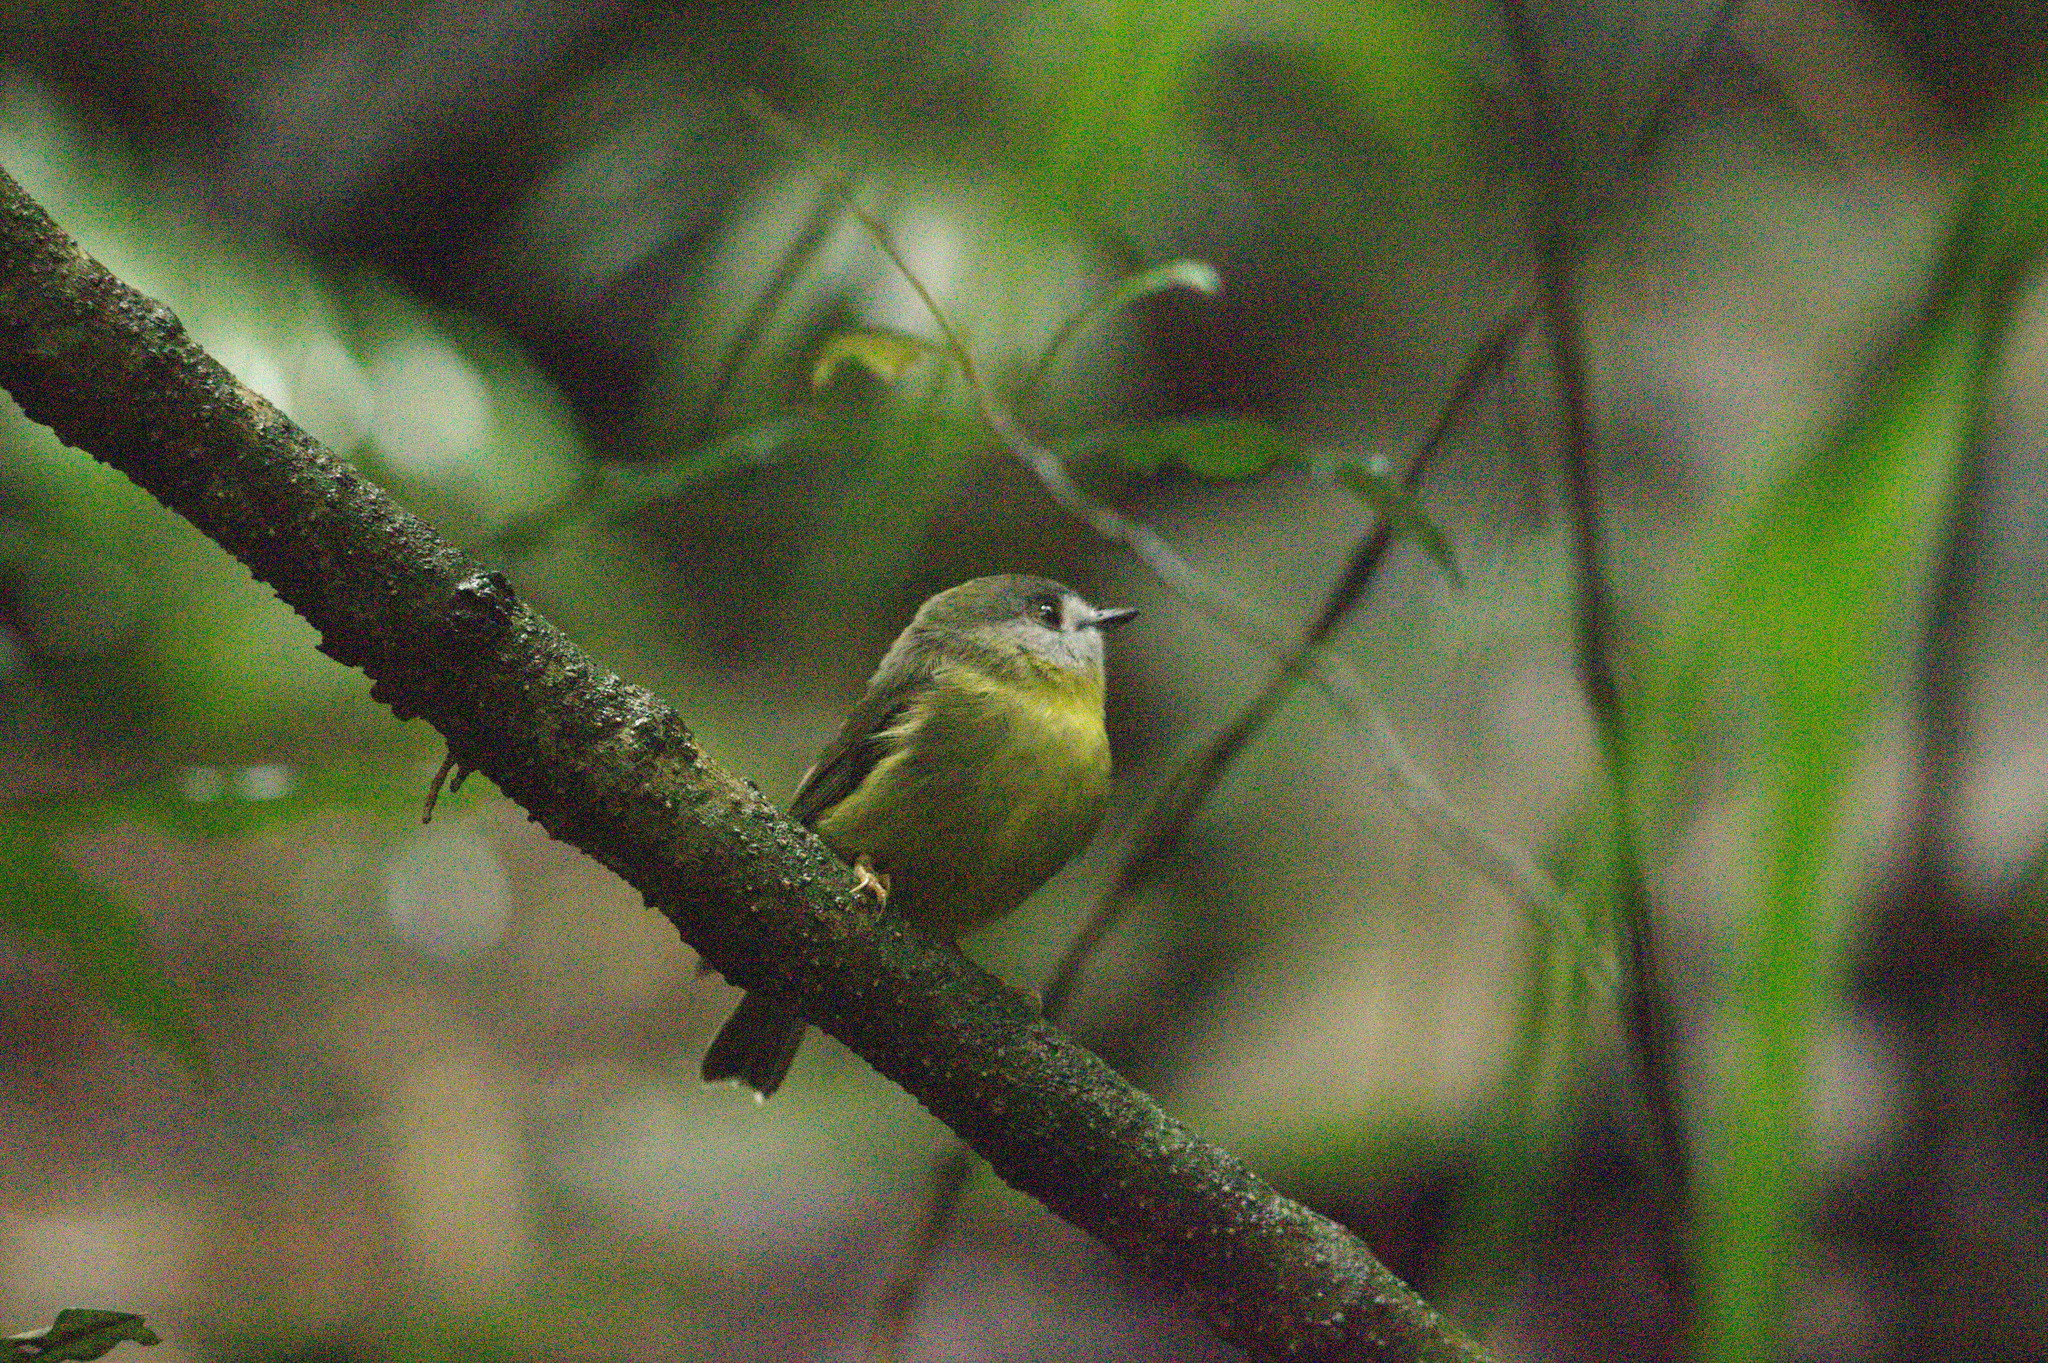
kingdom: Animalia
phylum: Chordata
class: Aves
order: Passeriformes
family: Petroicidae
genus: Eopsaltria
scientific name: Eopsaltria
